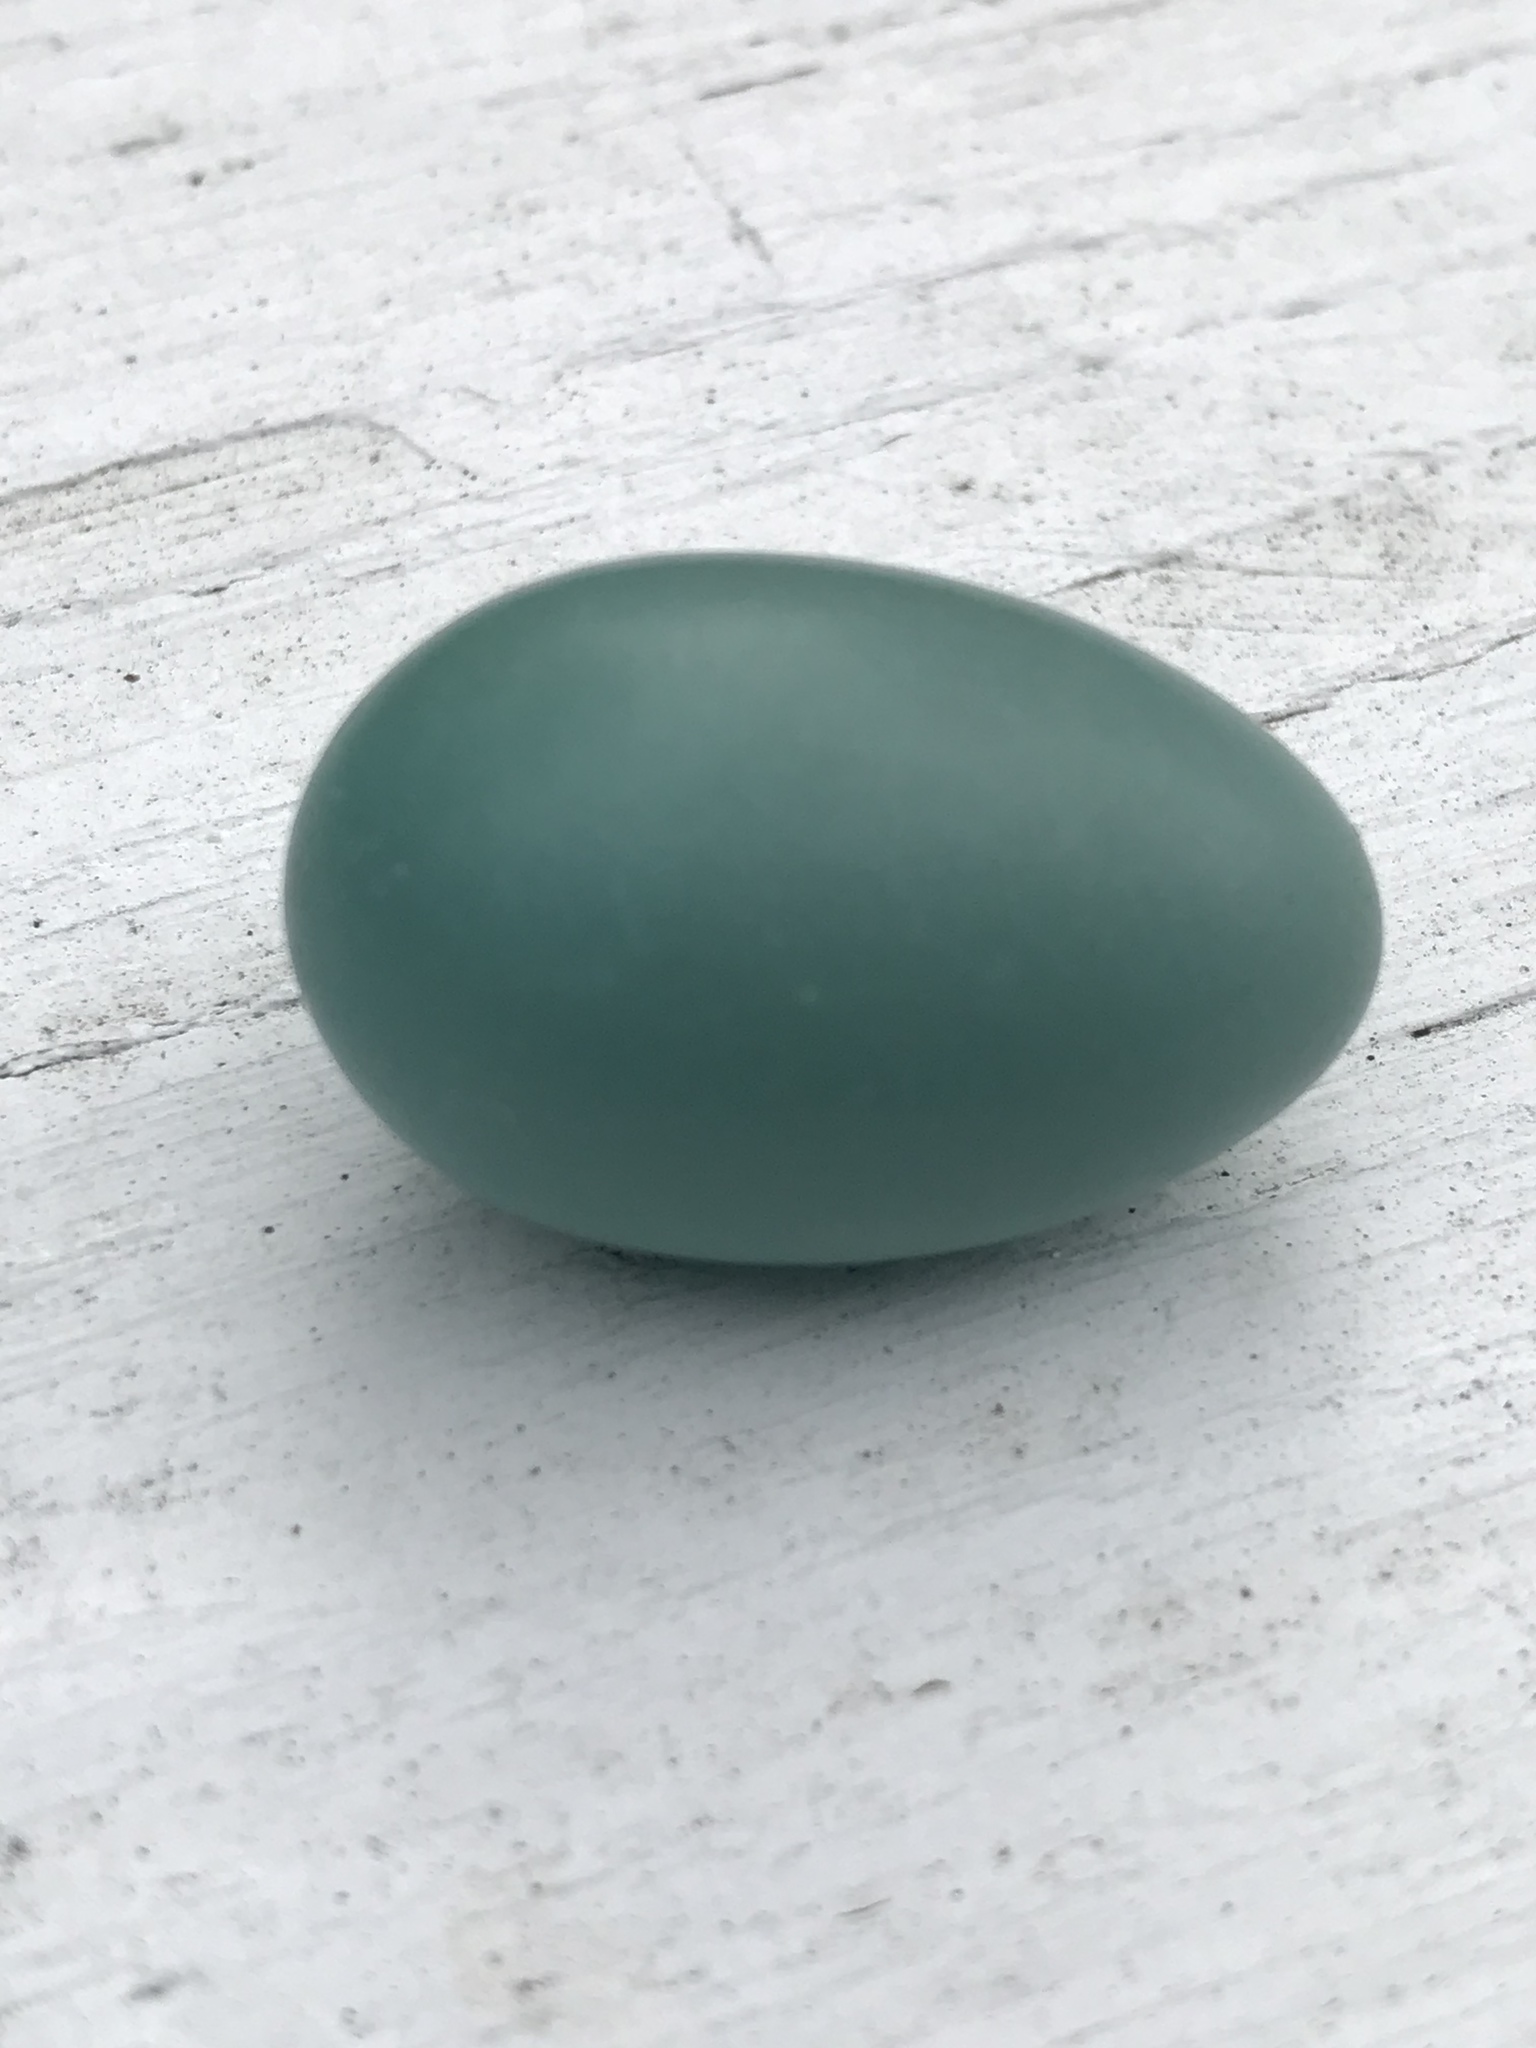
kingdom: Animalia
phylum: Chordata
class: Aves
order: Passeriformes
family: Turdidae
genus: Turdus
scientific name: Turdus migratorius
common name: American robin
